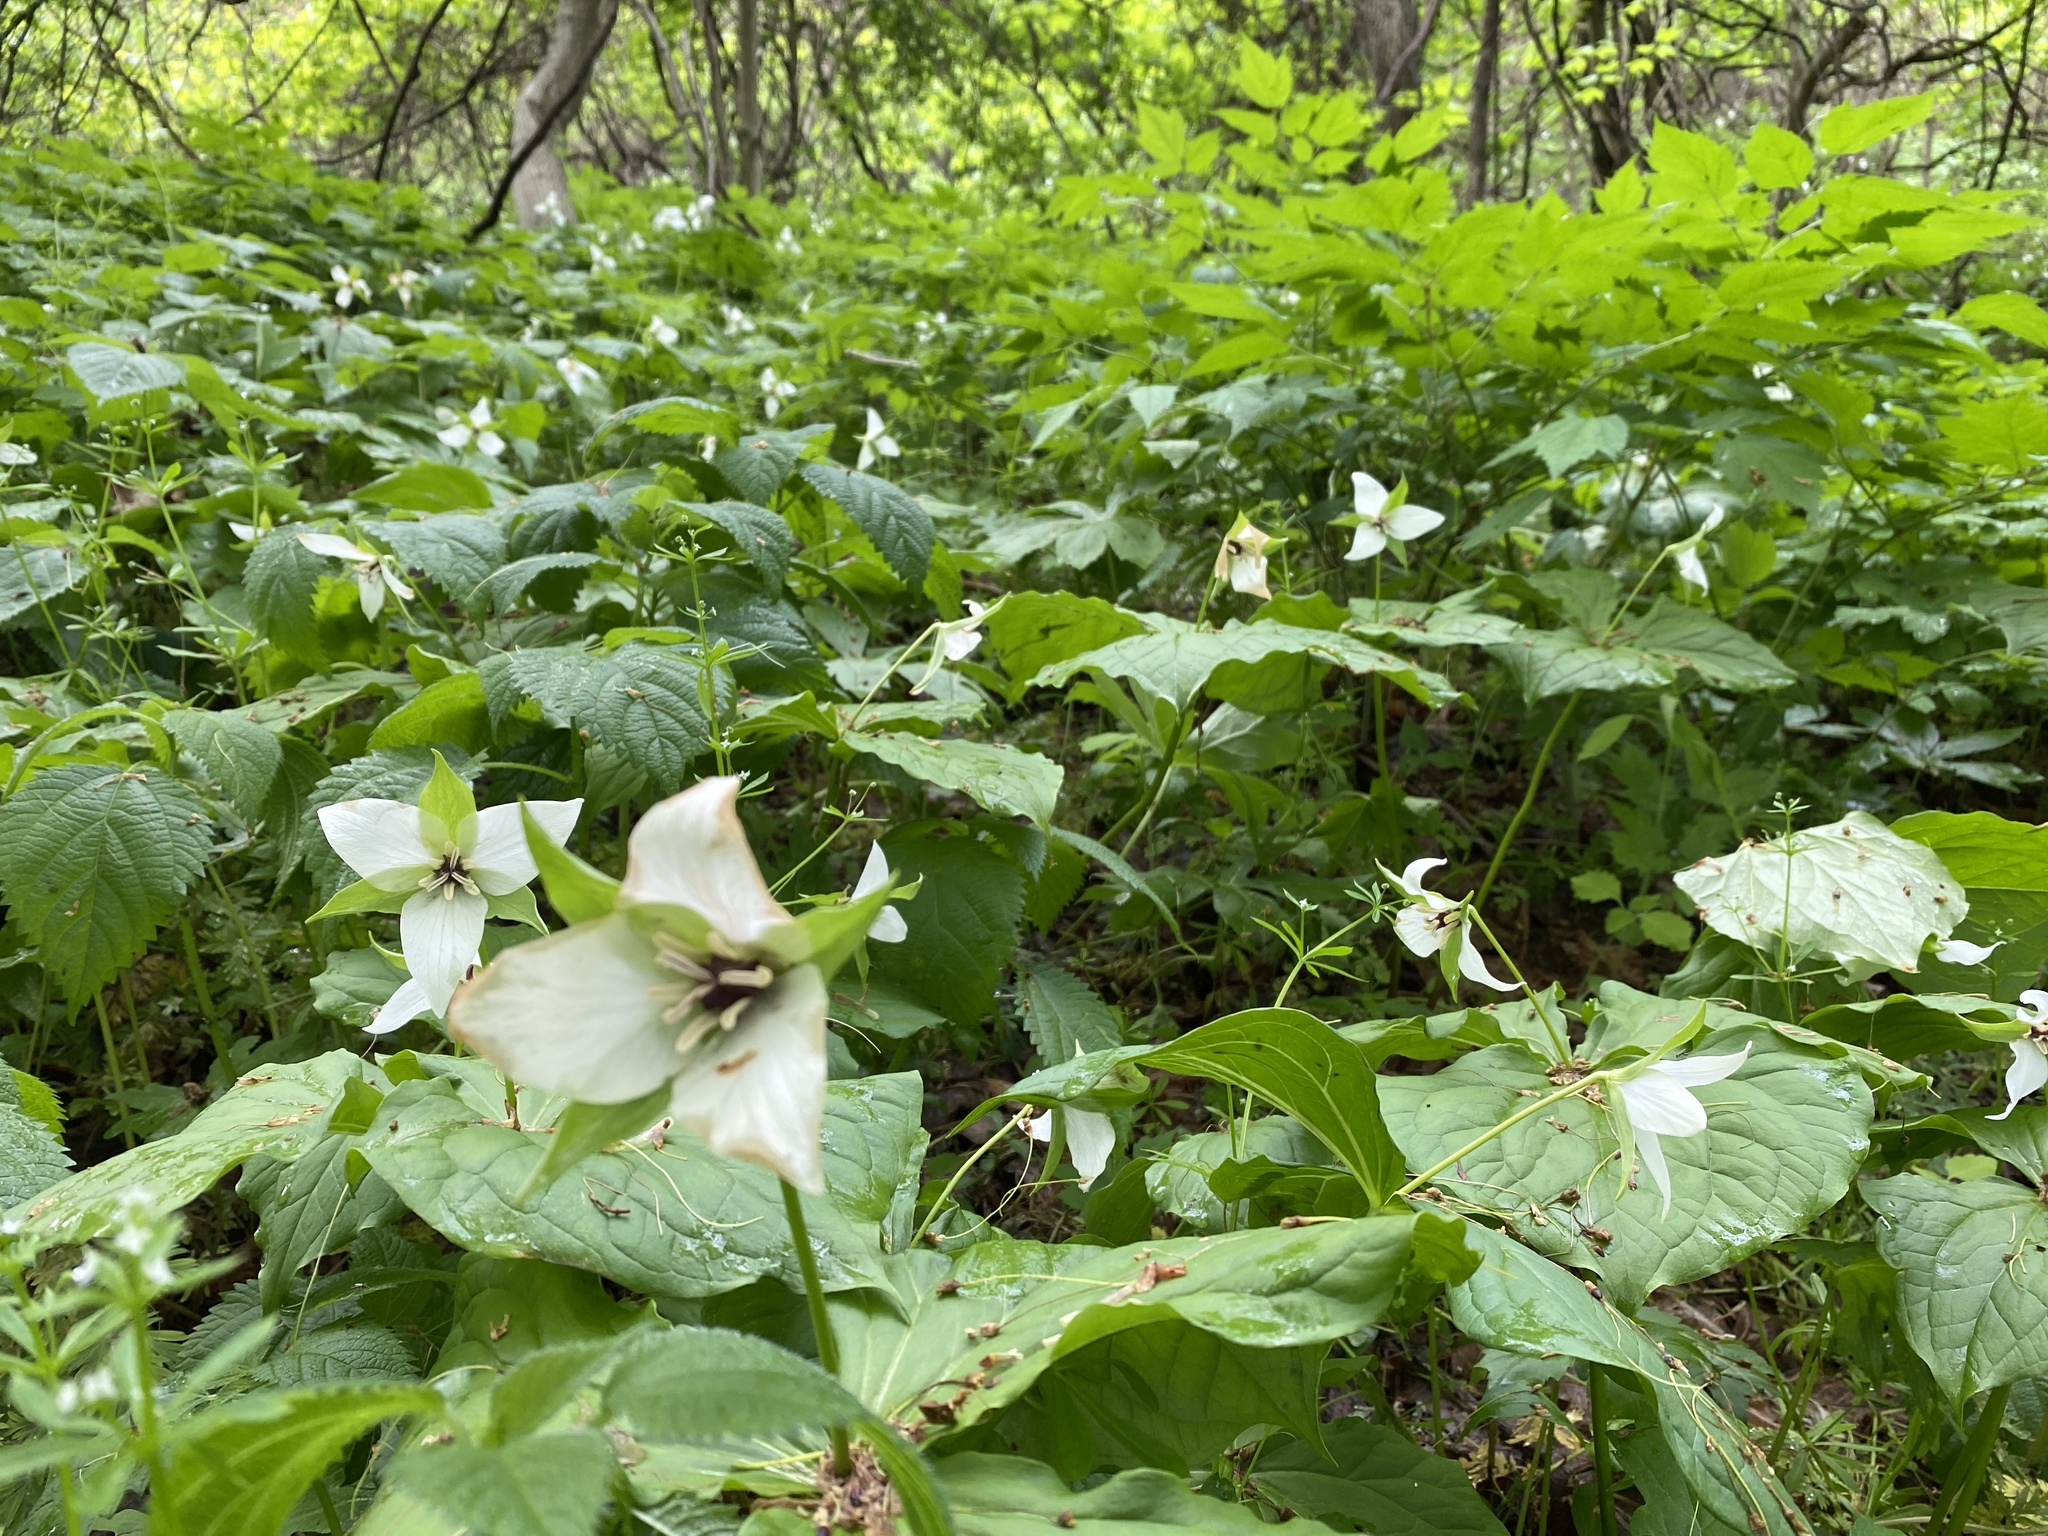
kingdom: Plantae
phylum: Tracheophyta
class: Liliopsida
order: Liliales
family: Melanthiaceae
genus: Trillium
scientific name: Trillium erectum
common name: Purple trillium
